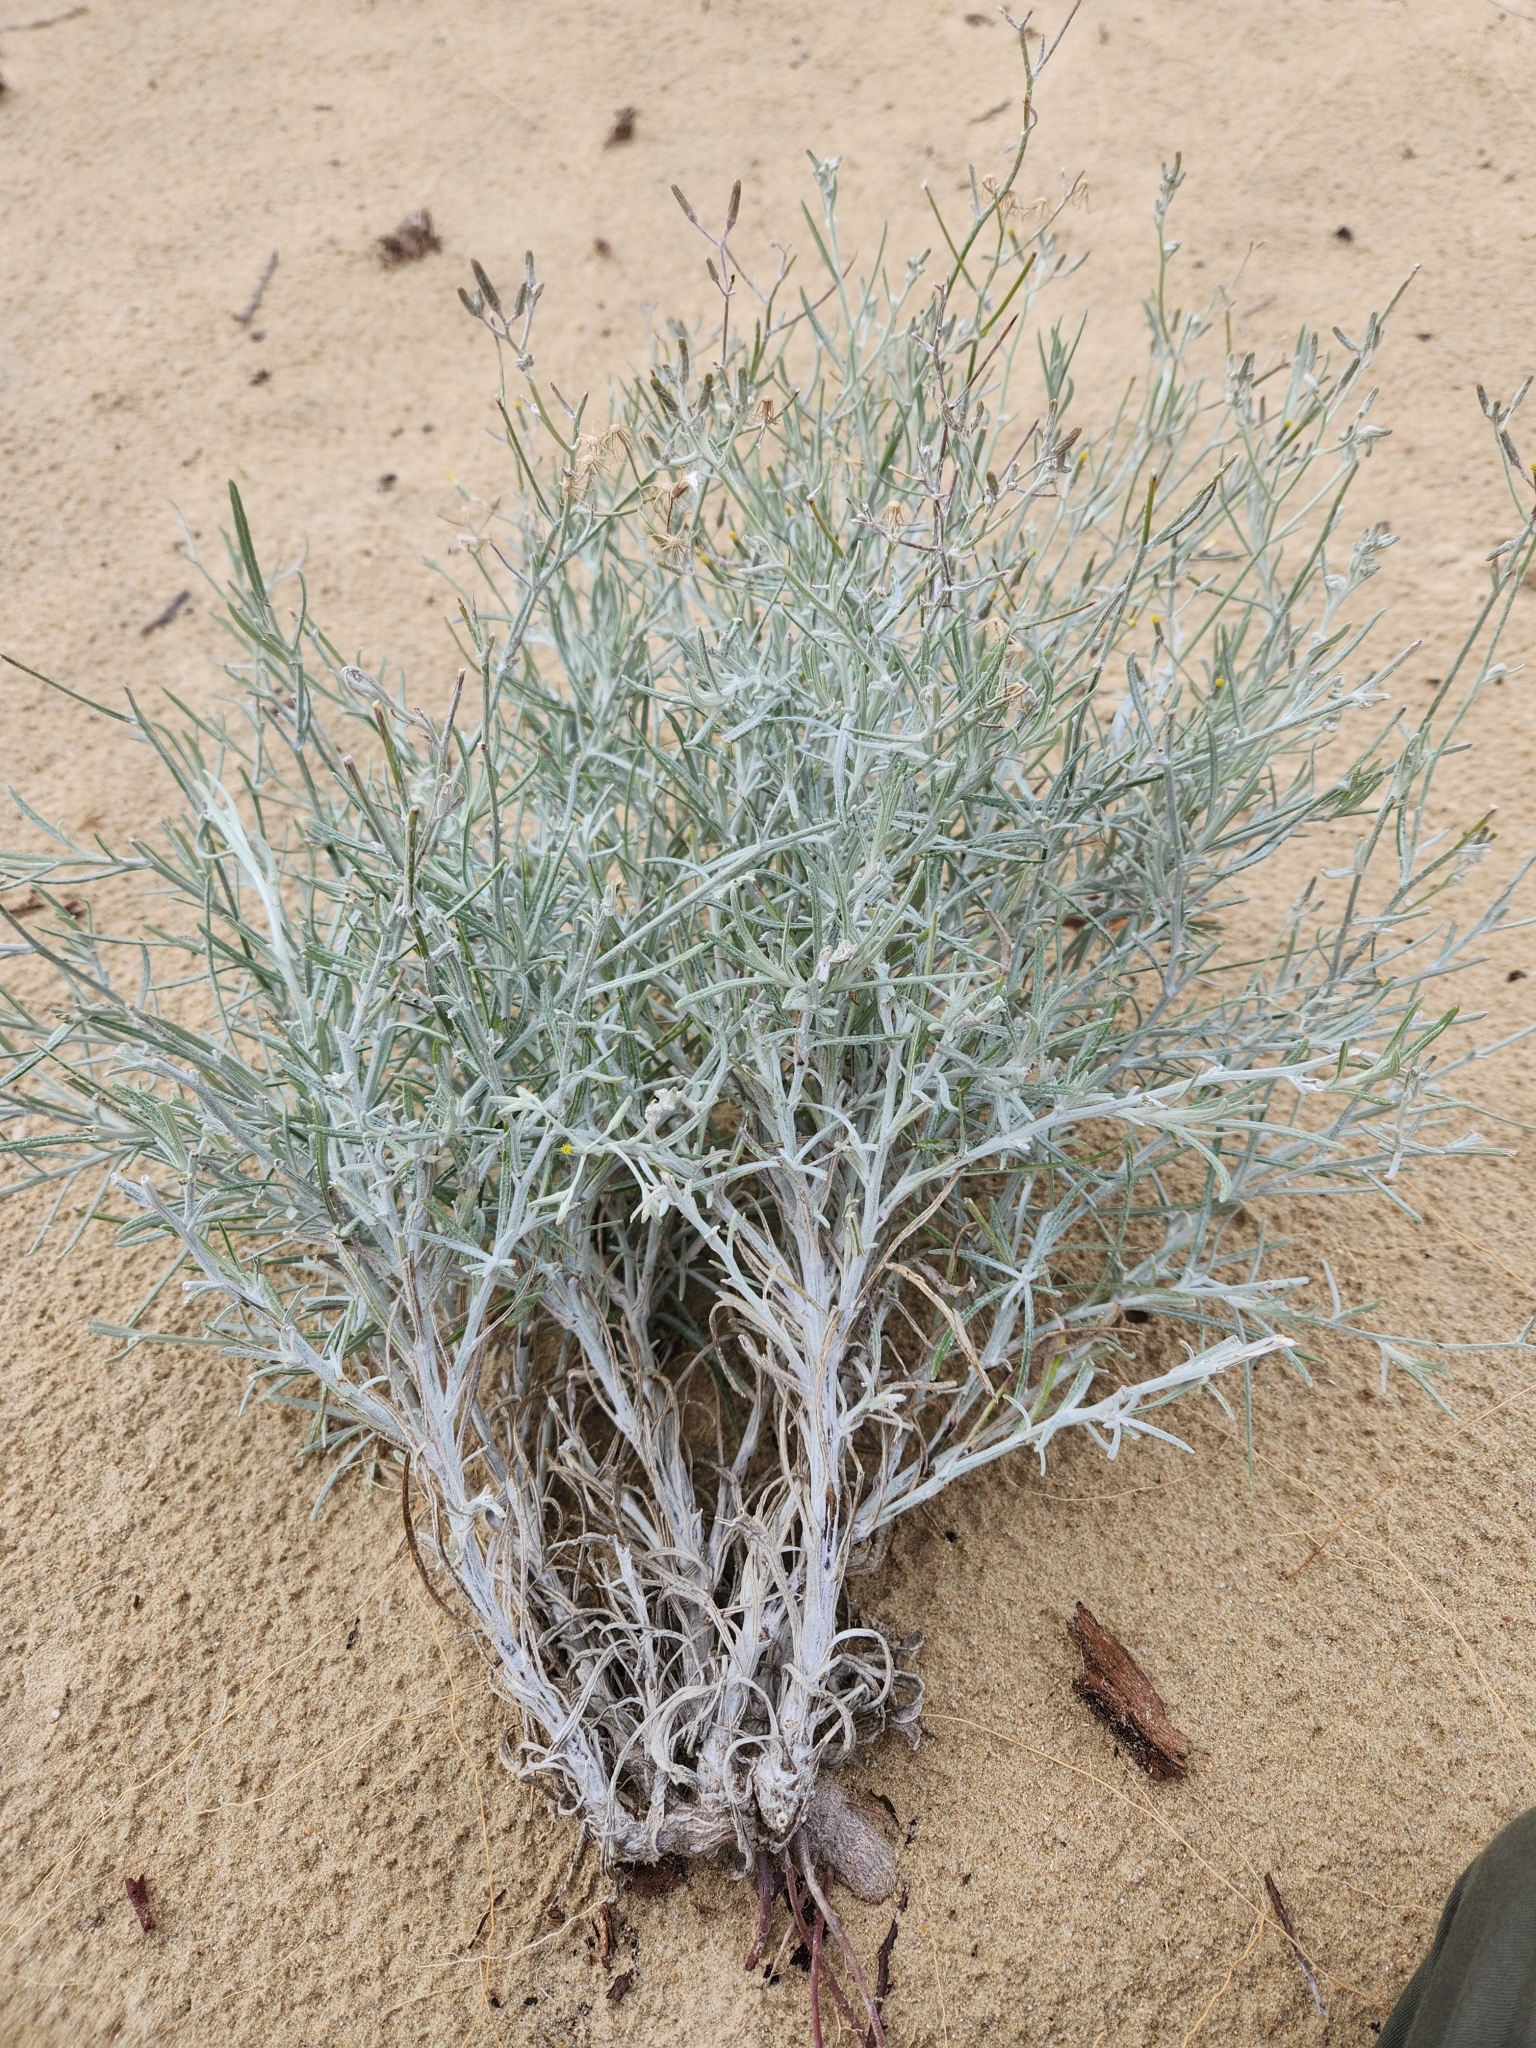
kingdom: Plantae
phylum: Tracheophyta
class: Magnoliopsida
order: Asterales
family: Asteraceae
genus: Senecio
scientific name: Senecio quadridentatus
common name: Cotton fireweed
